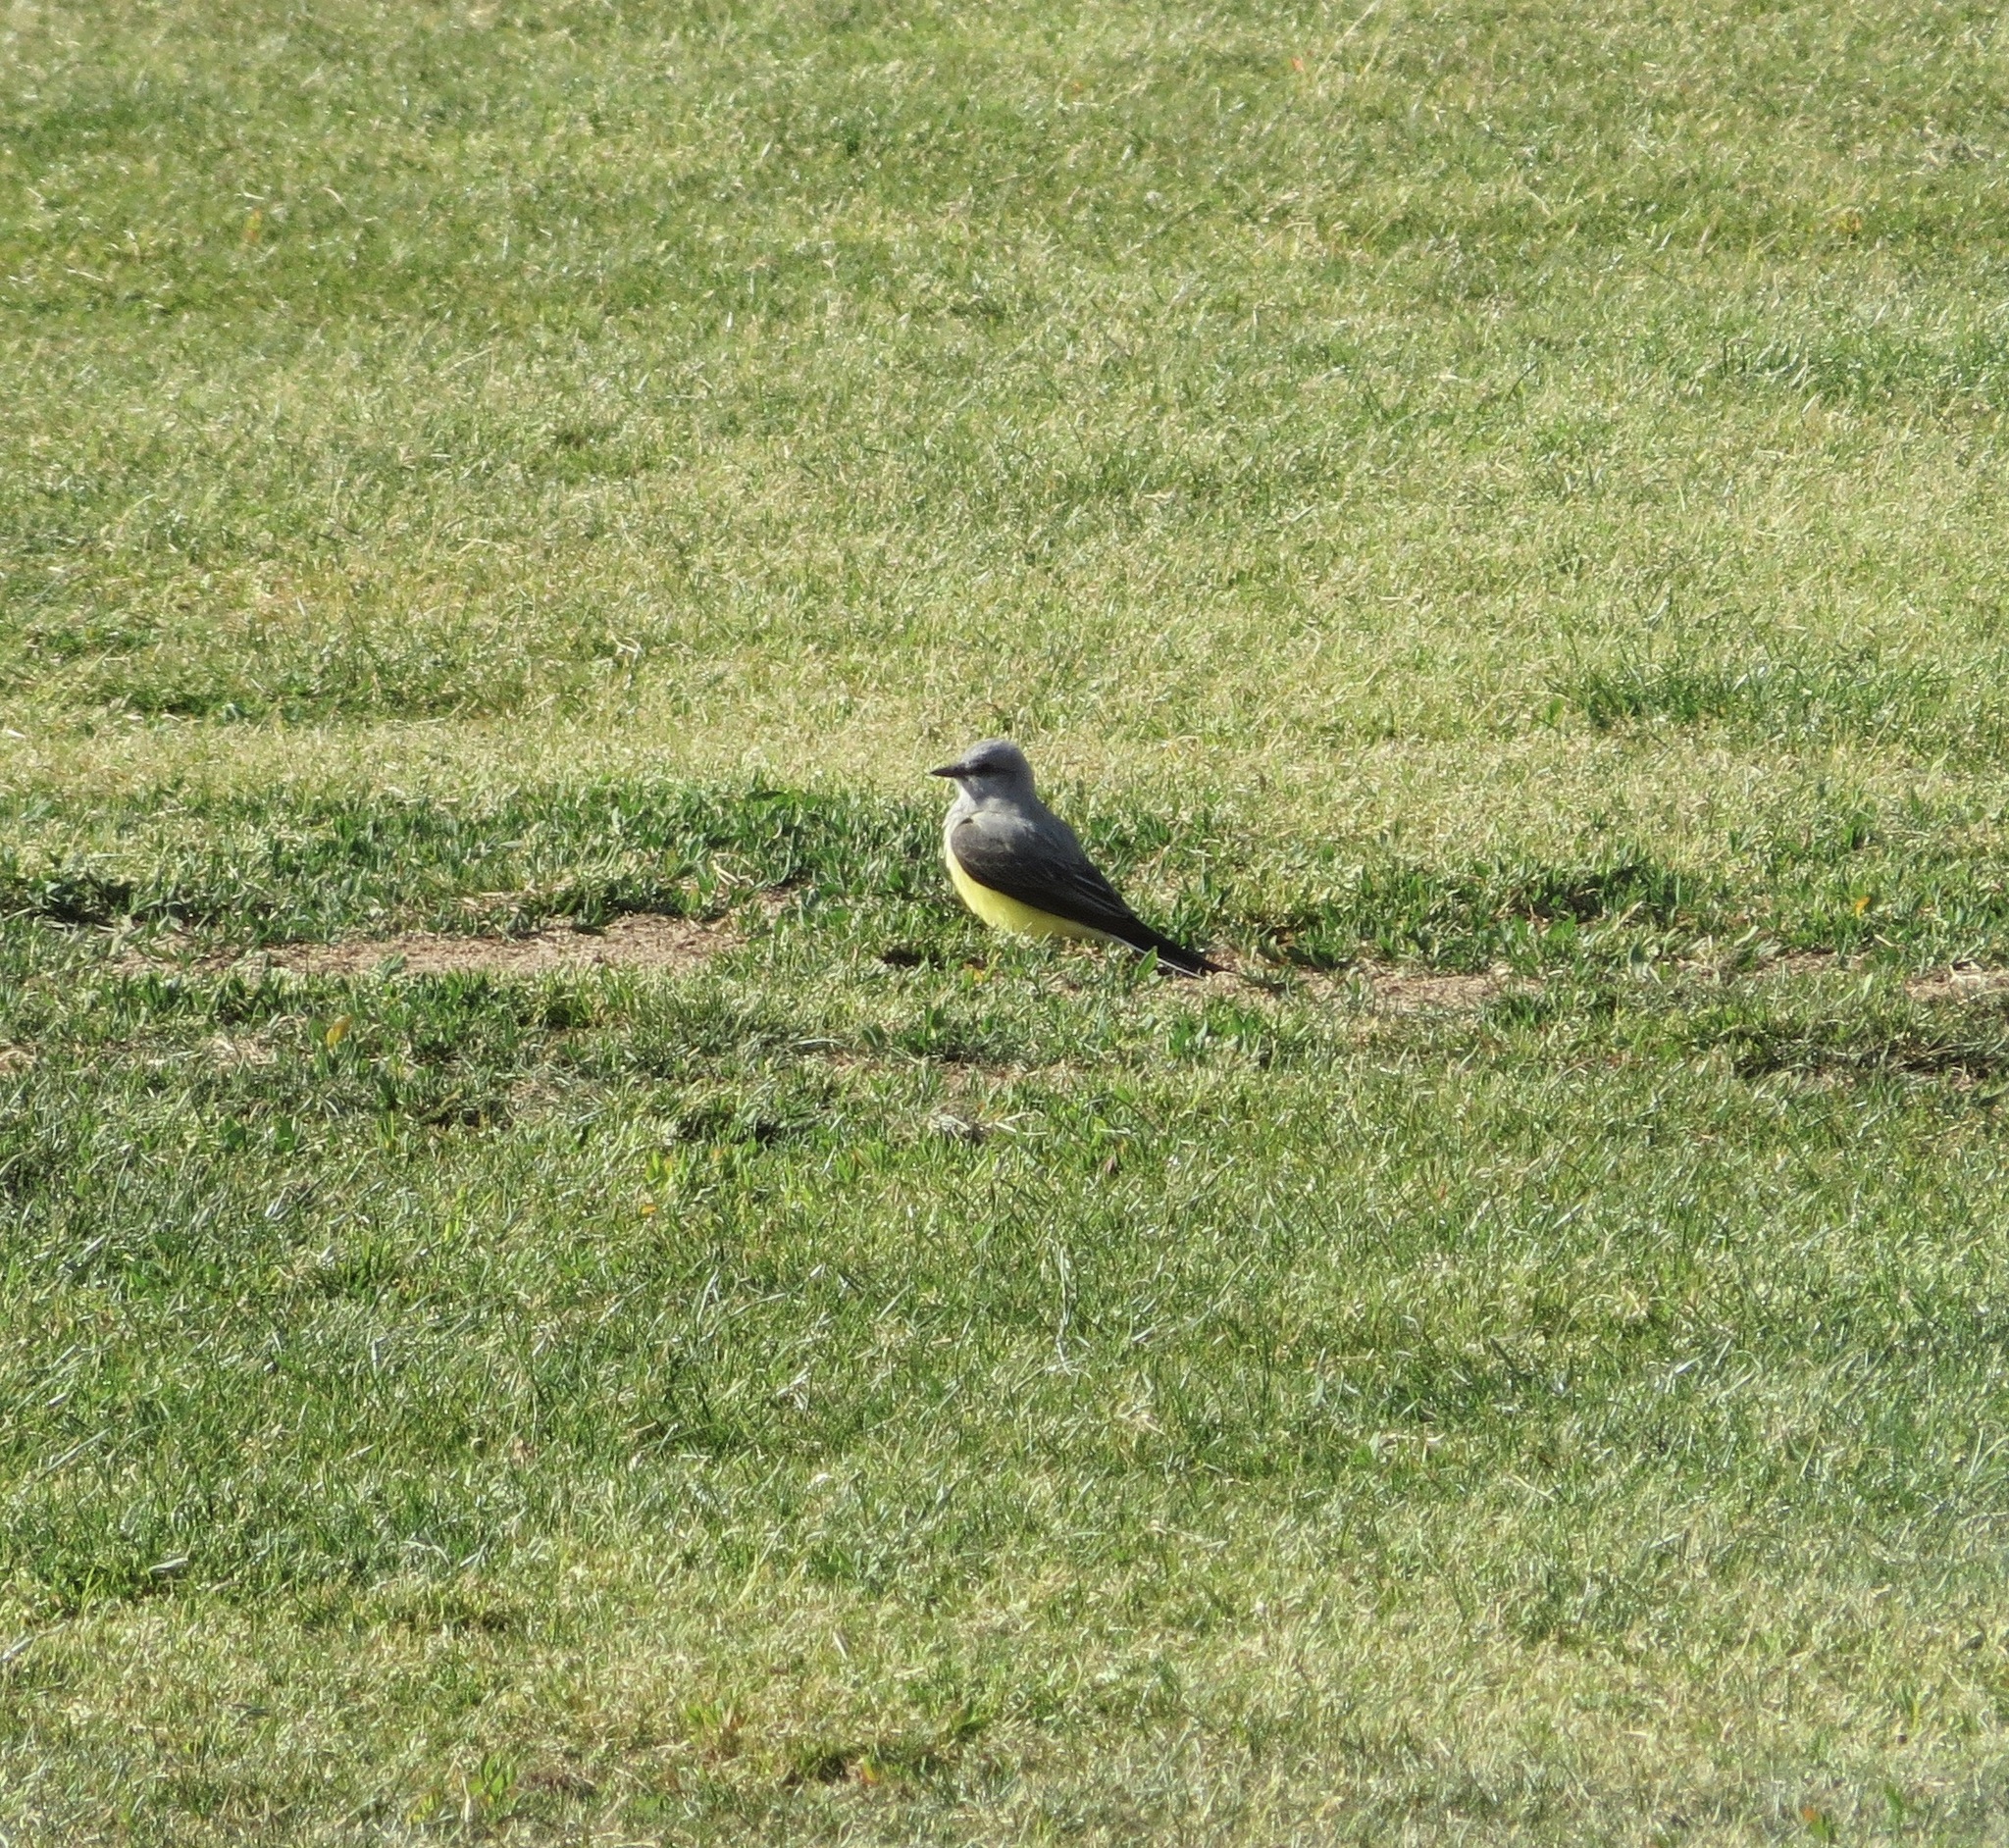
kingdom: Animalia
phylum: Chordata
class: Aves
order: Passeriformes
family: Tyrannidae
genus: Tyrannus
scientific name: Tyrannus verticalis
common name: Western kingbird
